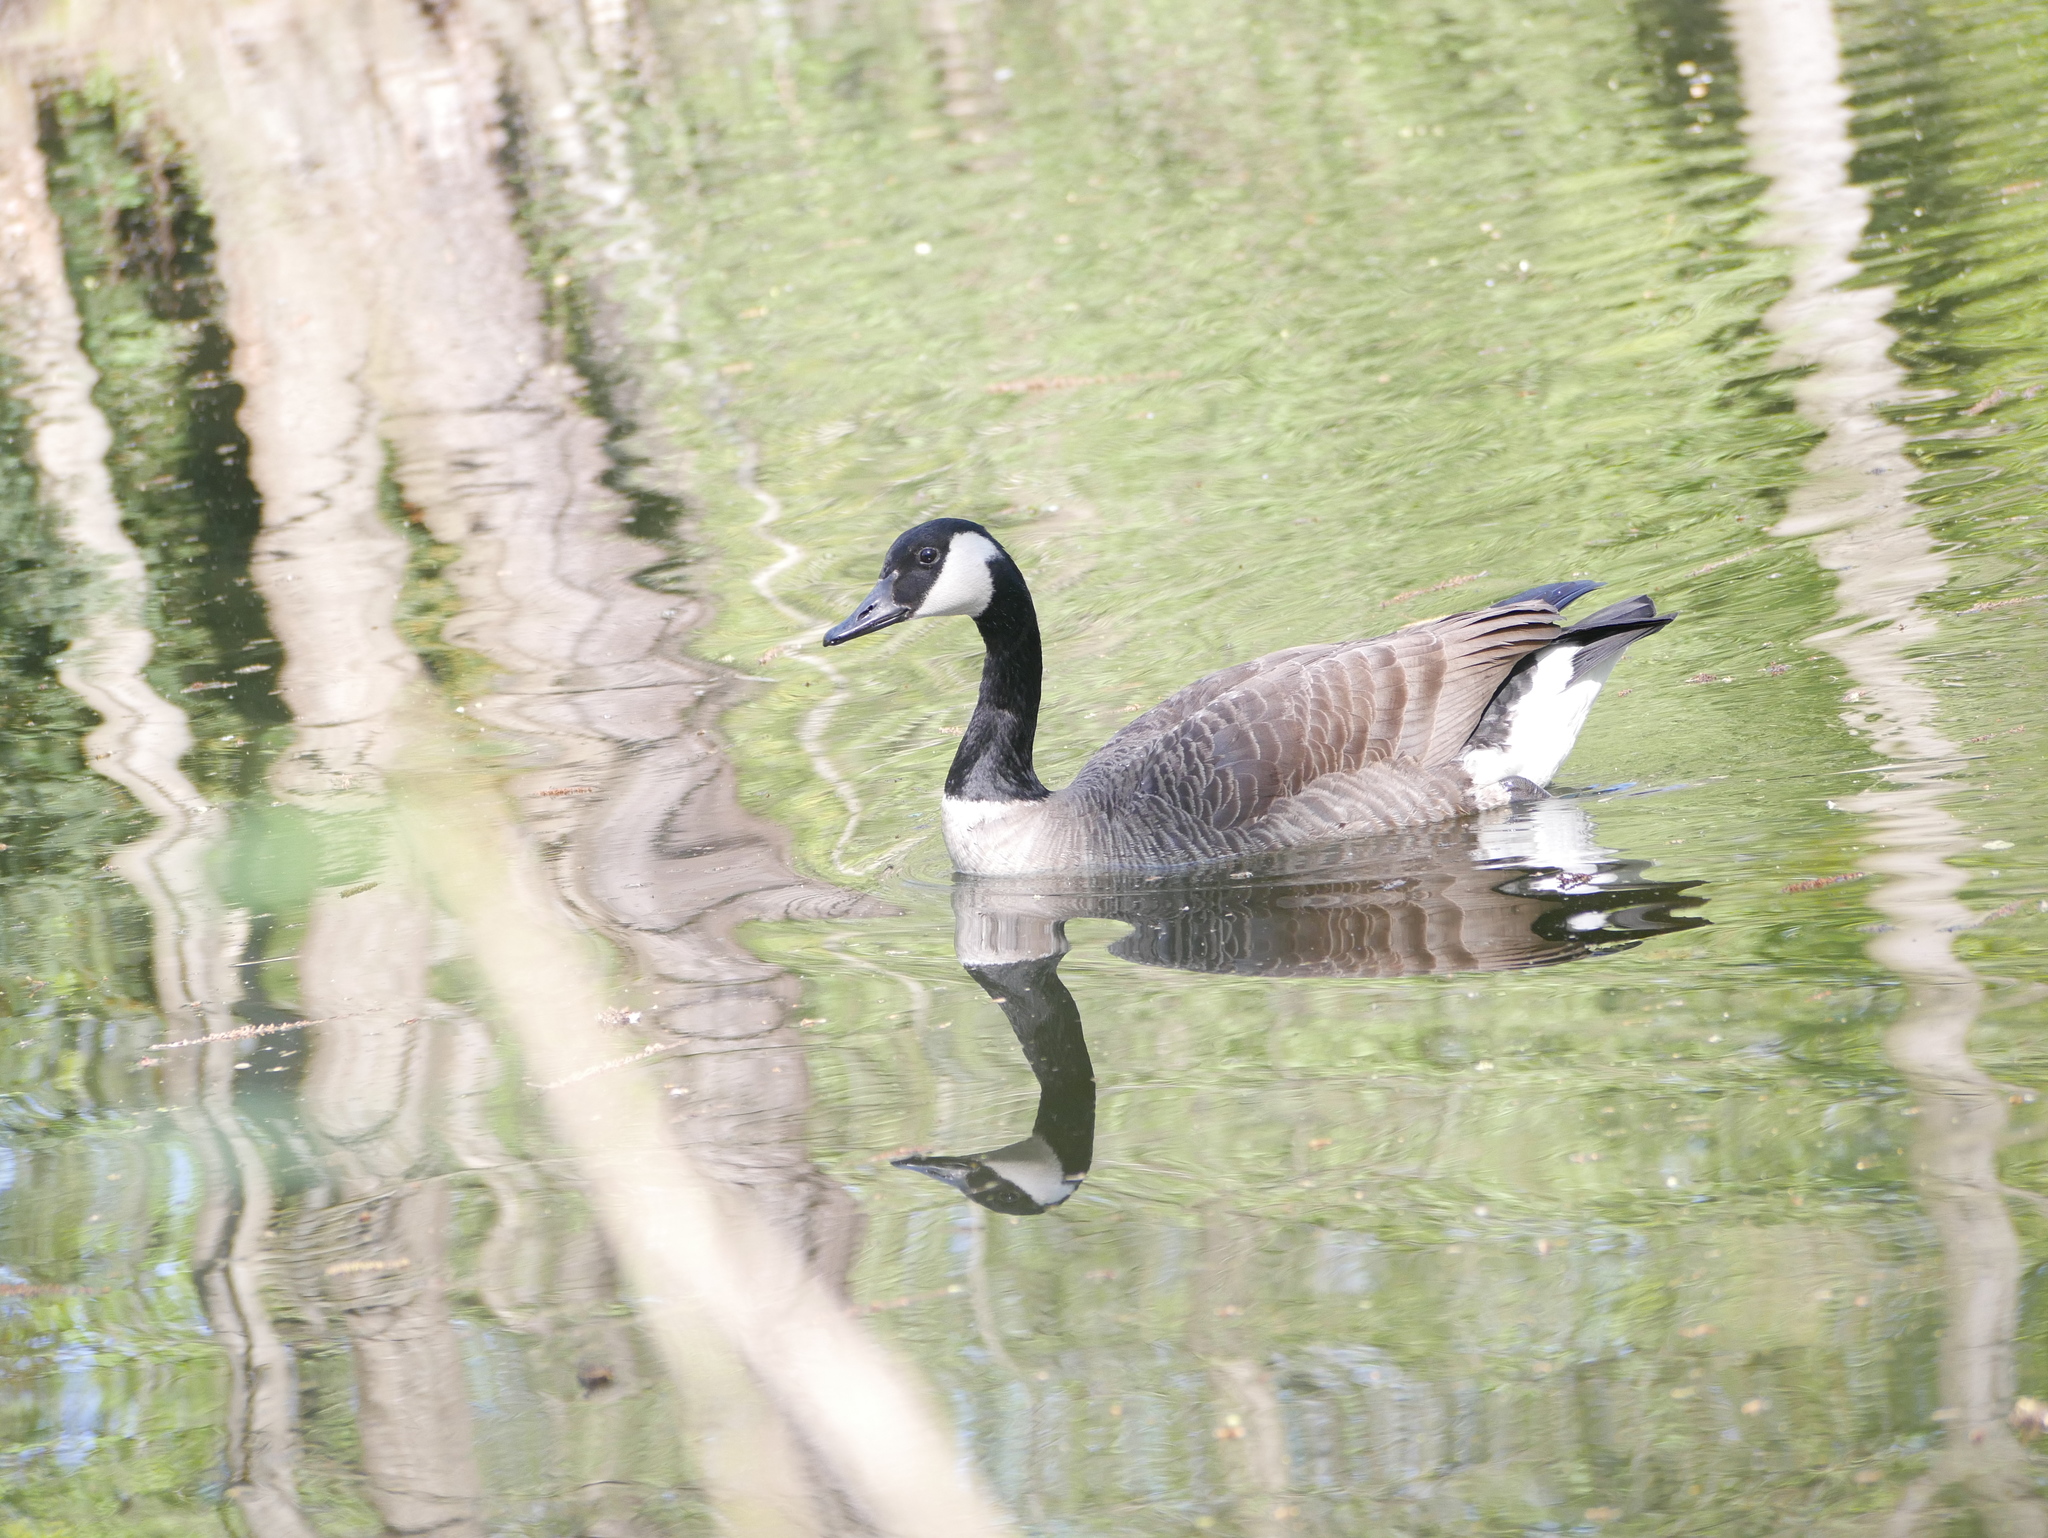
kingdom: Animalia
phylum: Chordata
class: Aves
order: Anseriformes
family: Anatidae
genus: Branta
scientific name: Branta canadensis
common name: Canada goose
